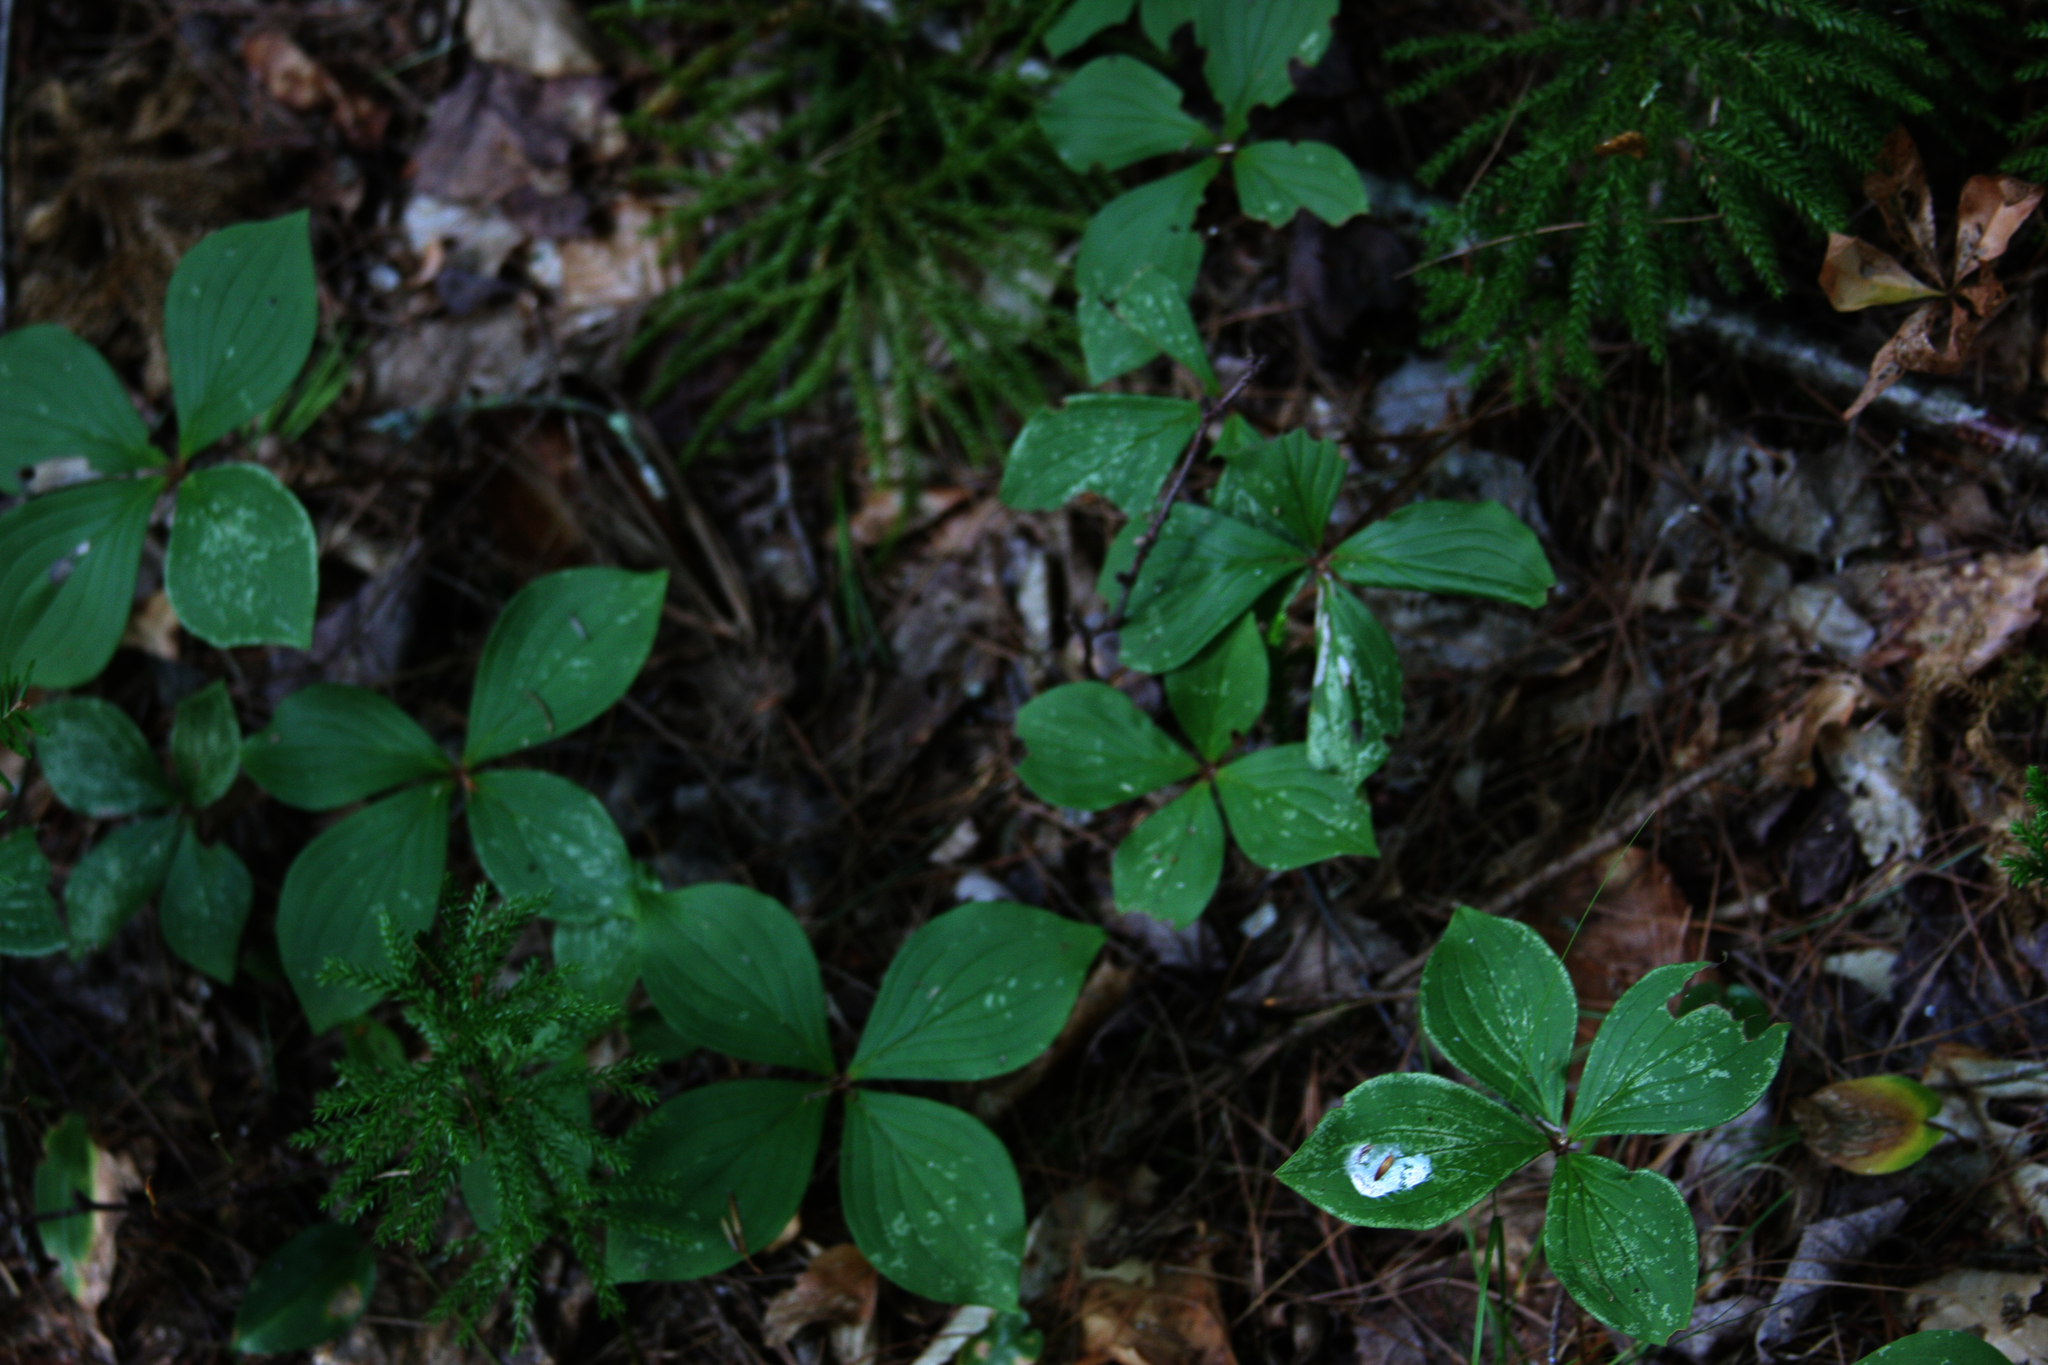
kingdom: Plantae
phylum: Tracheophyta
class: Magnoliopsida
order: Cornales
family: Cornaceae
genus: Cornus
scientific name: Cornus canadensis
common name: Creeping dogwood
